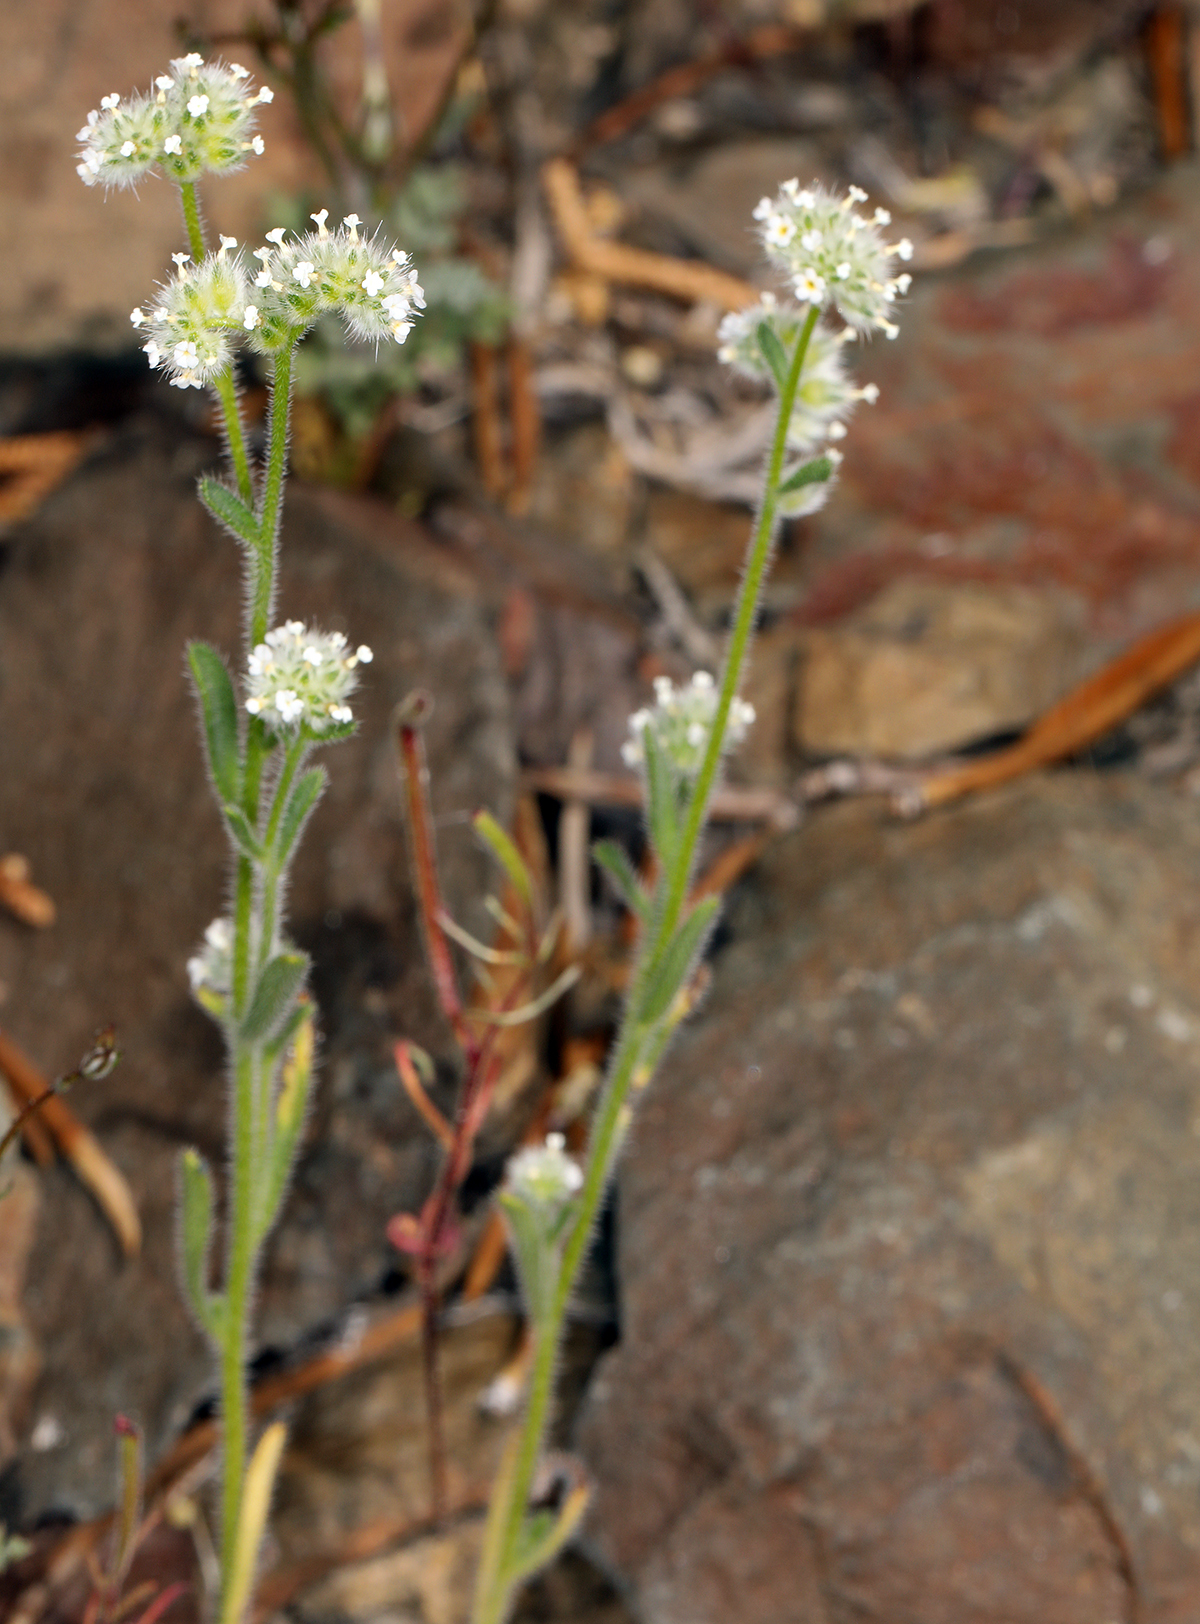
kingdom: Plantae
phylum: Tracheophyta
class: Magnoliopsida
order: Boraginales
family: Boraginaceae
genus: Cryptantha
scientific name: Cryptantha gracilis
